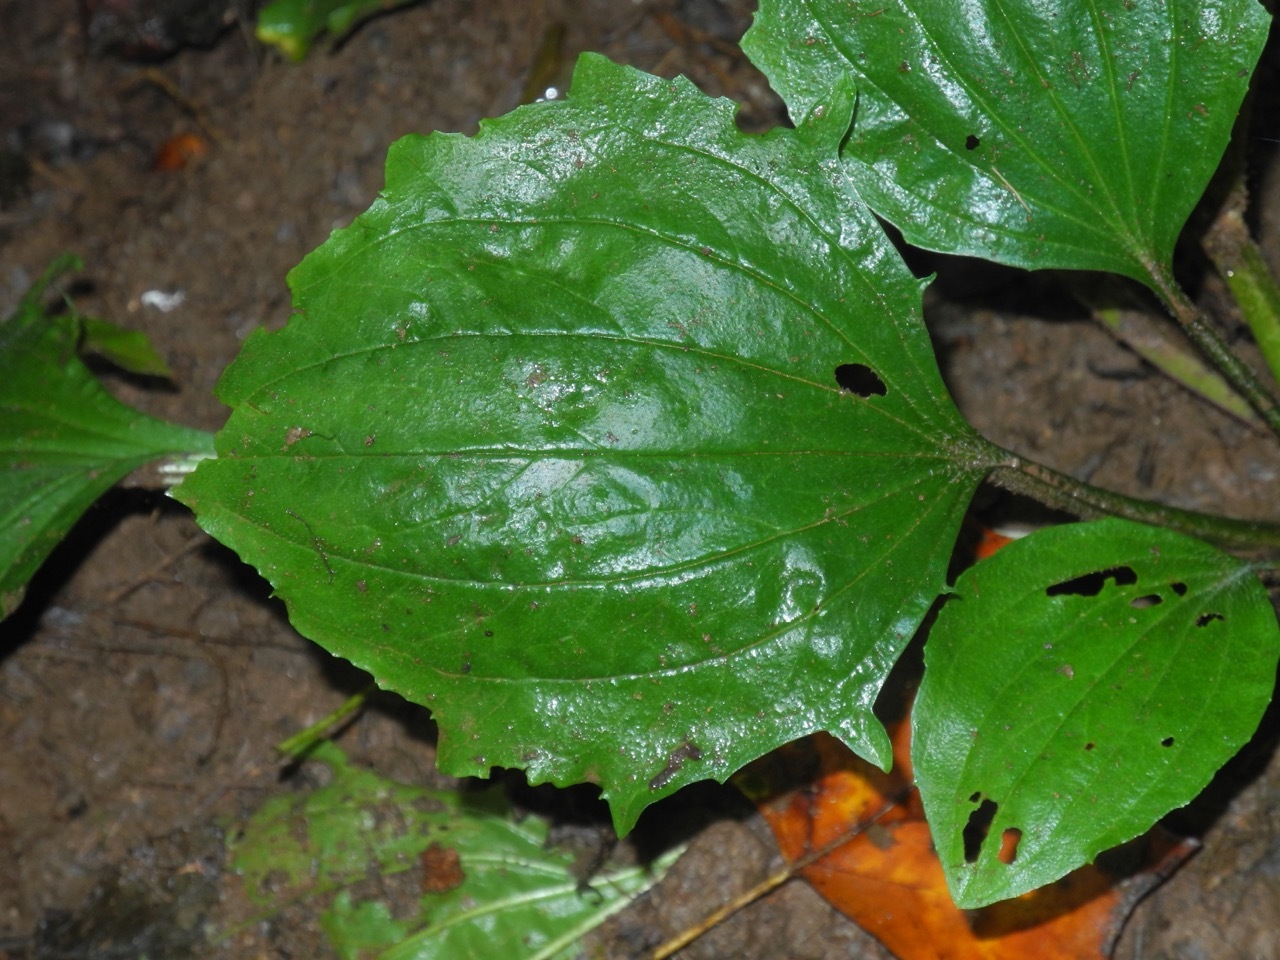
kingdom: Plantae
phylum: Tracheophyta
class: Magnoliopsida
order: Lamiales
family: Plantaginaceae
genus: Plantago
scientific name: Plantago major
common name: Common plantain
